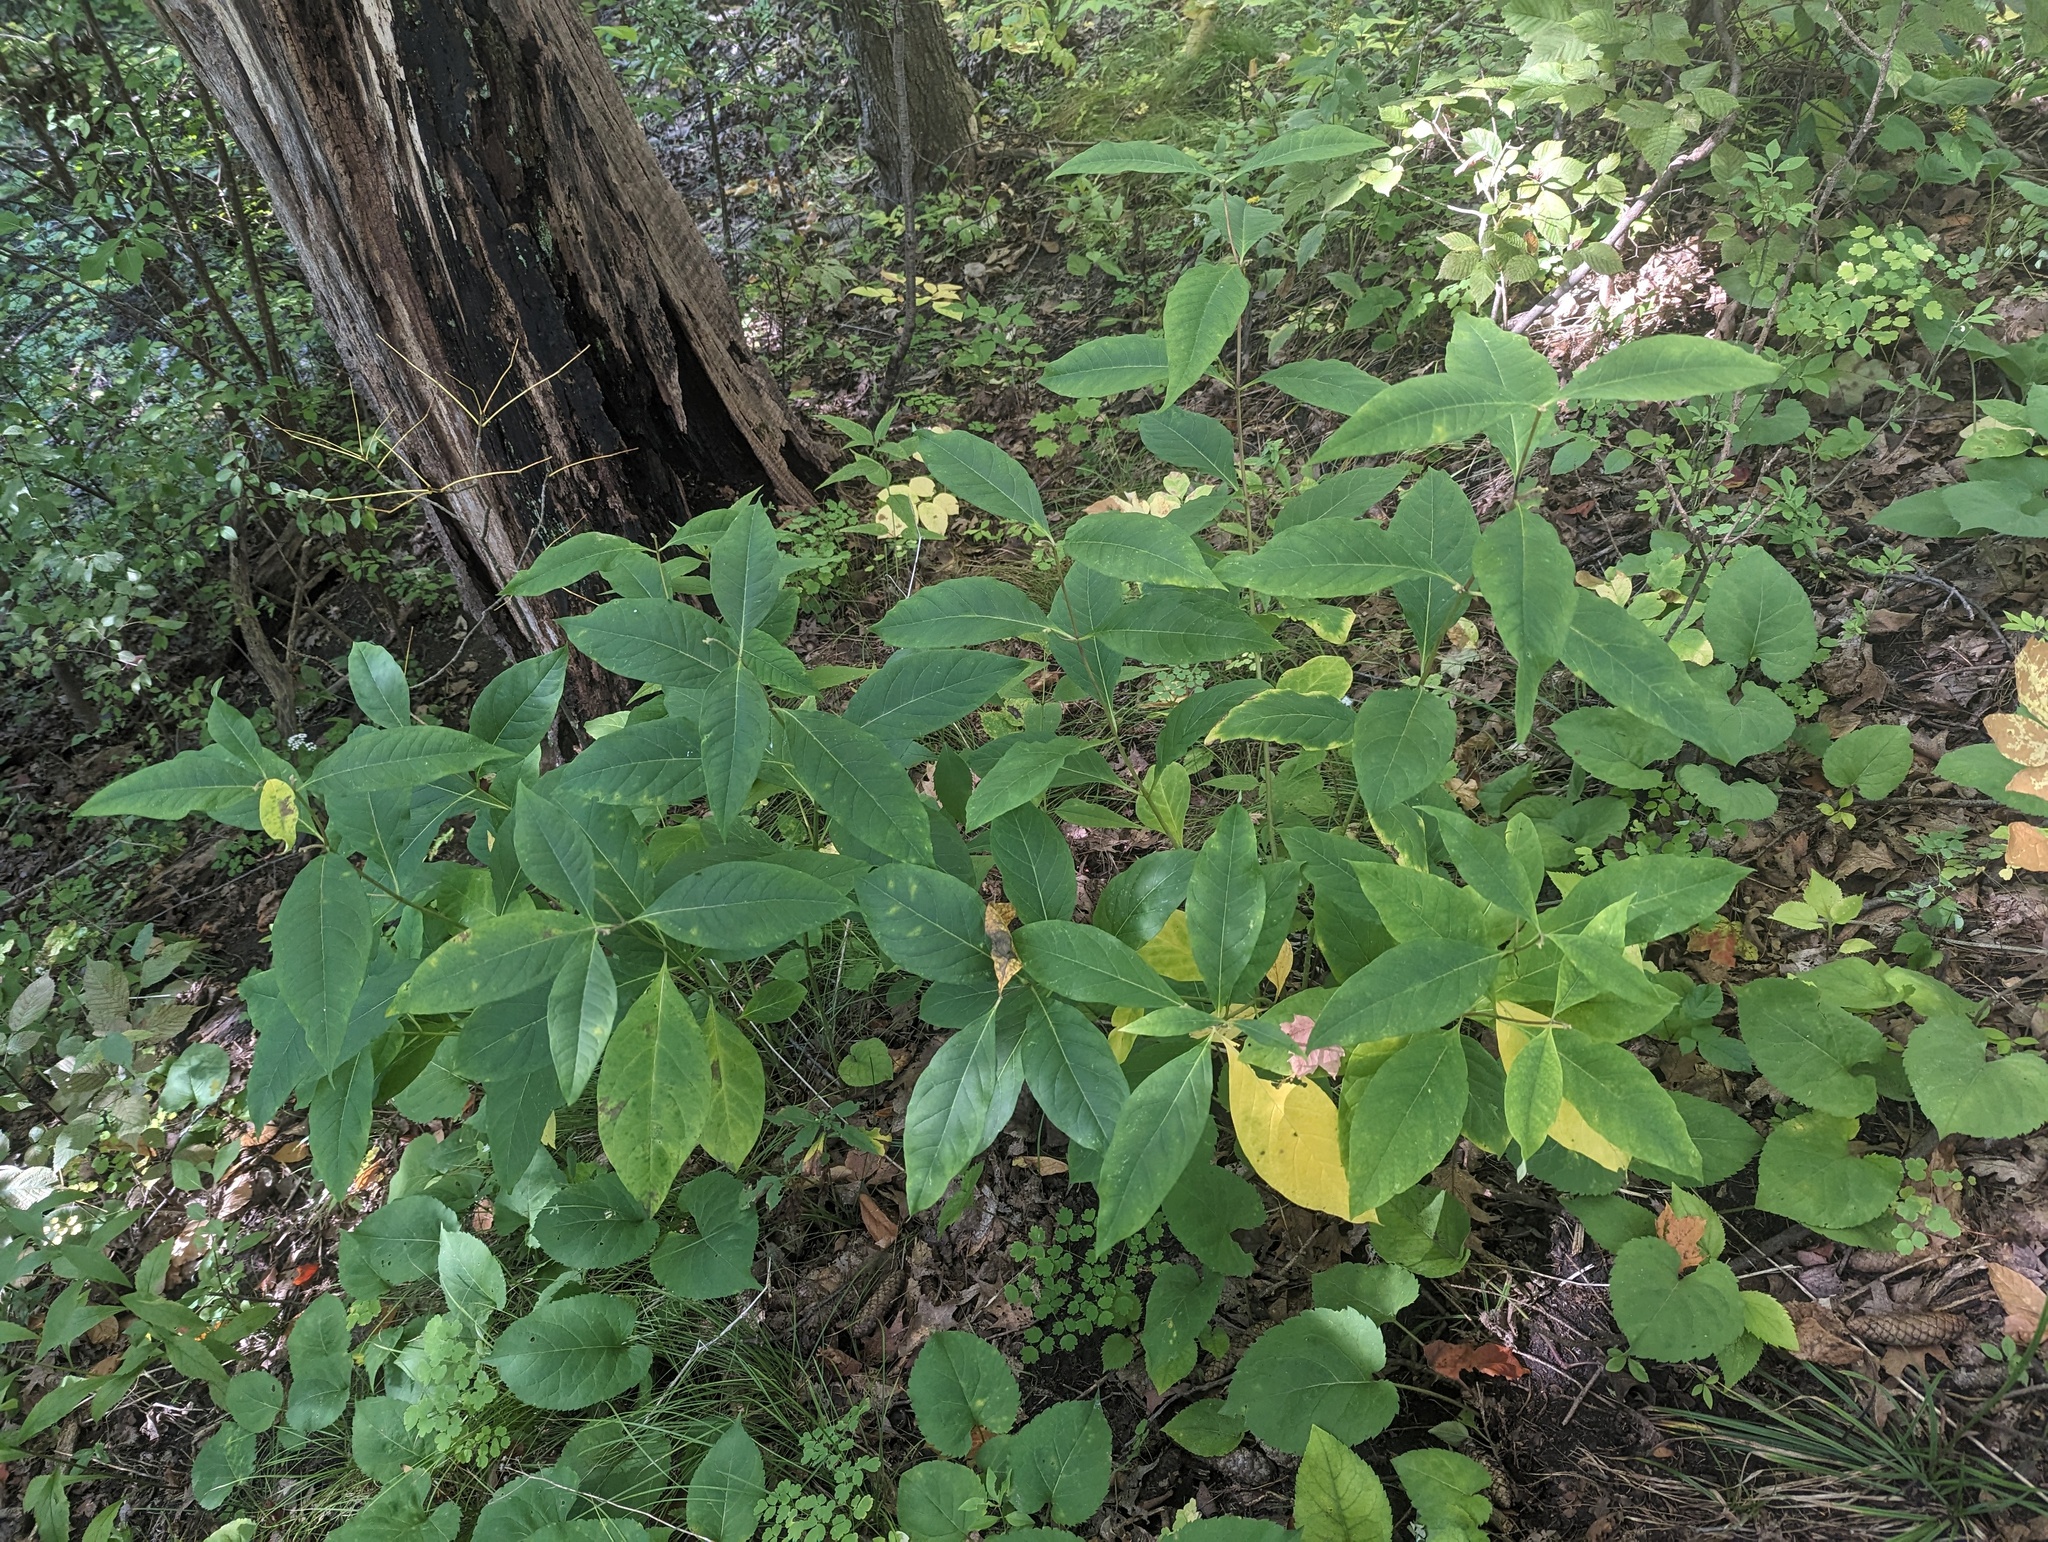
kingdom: Plantae
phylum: Tracheophyta
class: Magnoliopsida
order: Gentianales
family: Apocynaceae
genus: Asclepias
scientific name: Asclepias exaltata
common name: Poke milkweed
